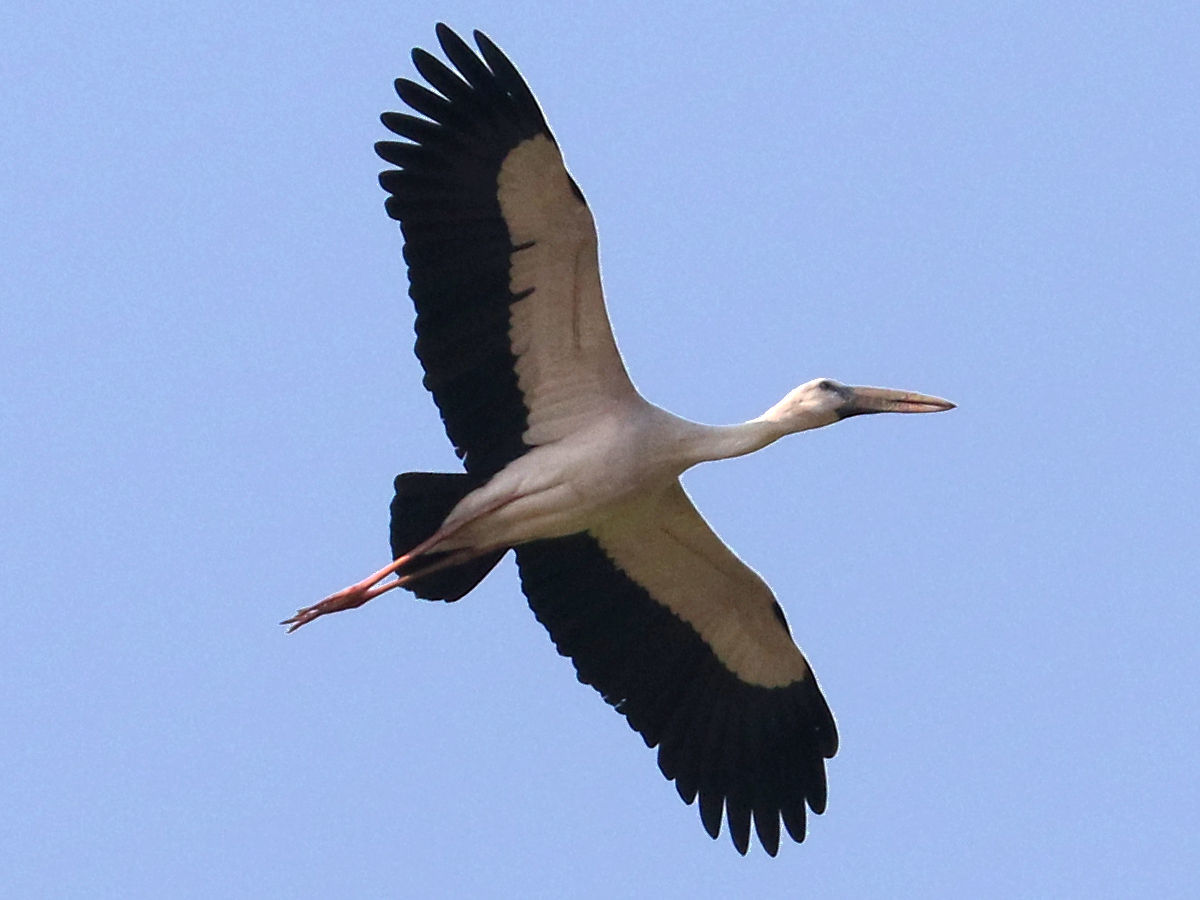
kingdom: Animalia
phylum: Chordata
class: Aves
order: Ciconiiformes
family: Ciconiidae
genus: Anastomus
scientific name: Anastomus oscitans
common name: Asian openbill
